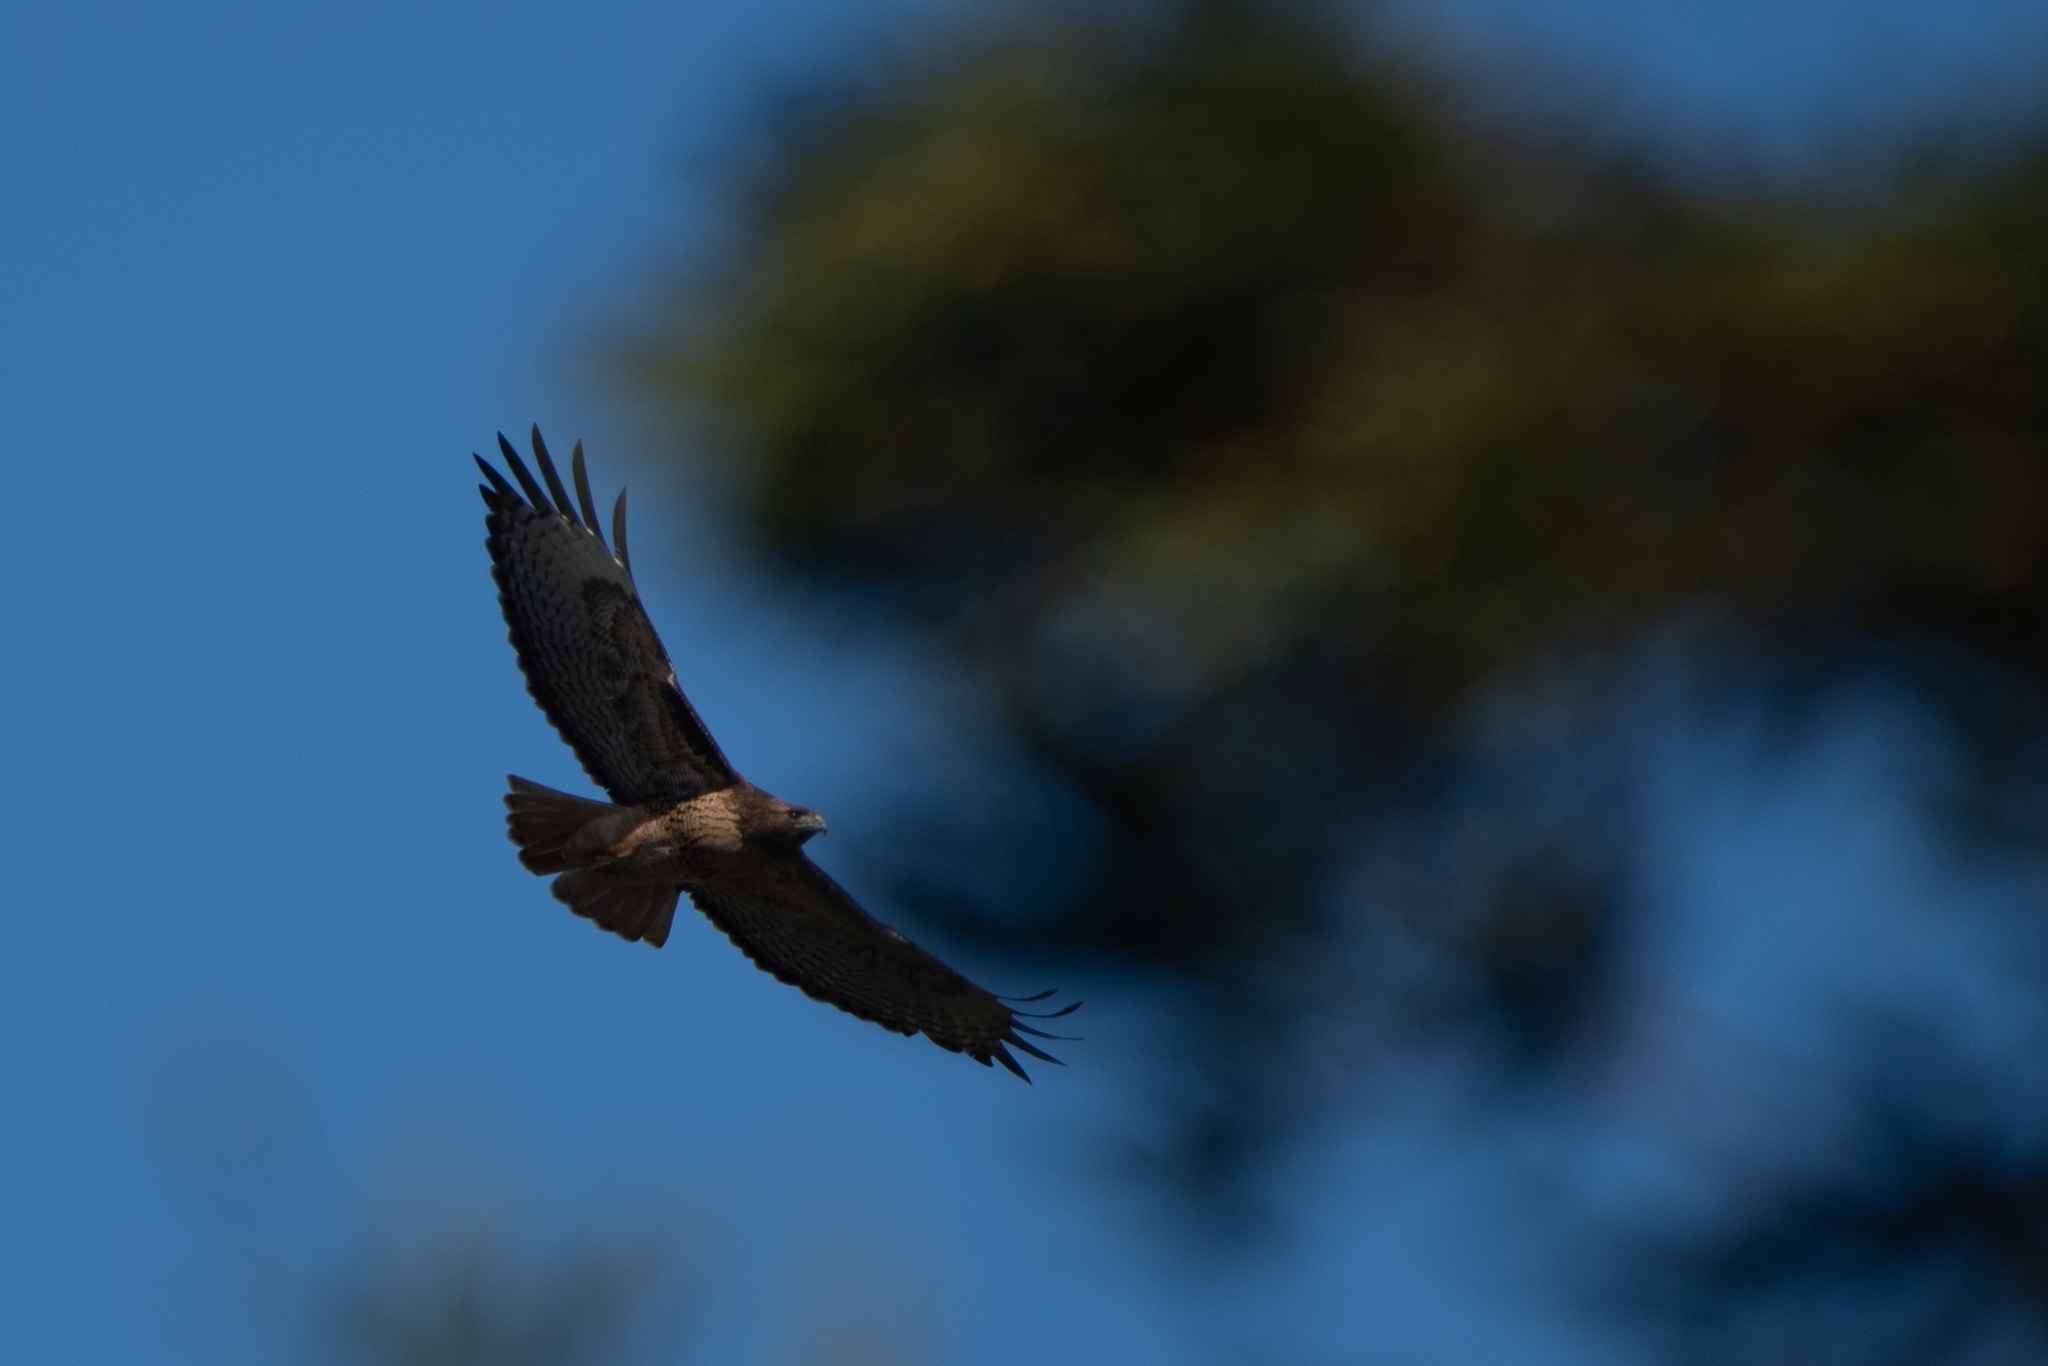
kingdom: Animalia
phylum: Chordata
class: Aves
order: Accipitriformes
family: Accipitridae
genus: Buteo
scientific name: Buteo jamaicensis
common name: Red-tailed hawk
